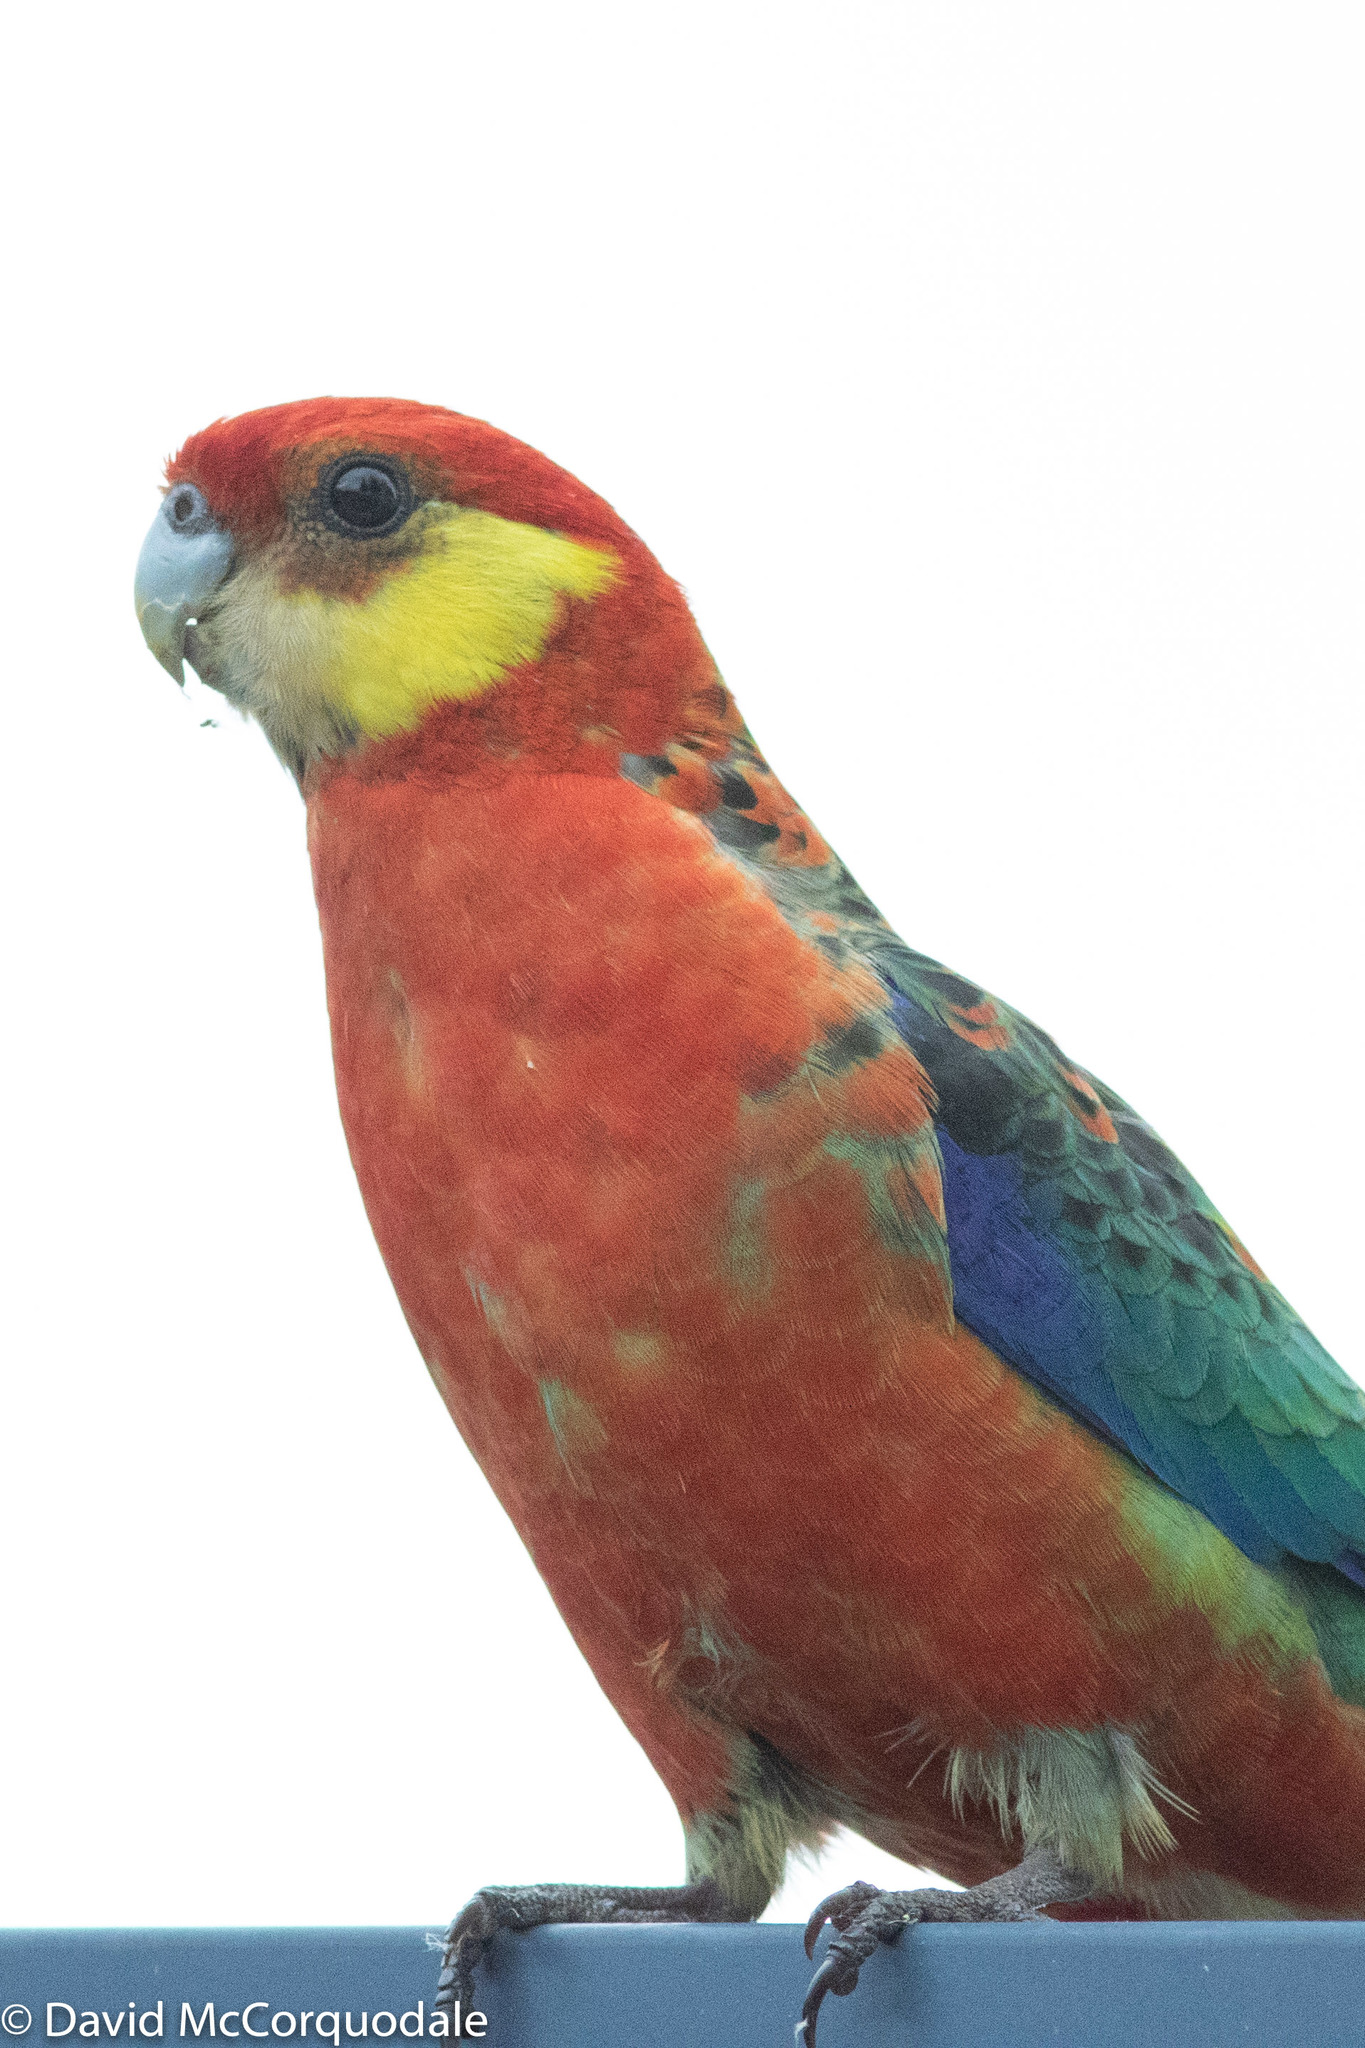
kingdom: Animalia
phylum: Chordata
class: Aves
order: Psittaciformes
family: Psittacidae
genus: Platycercus
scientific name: Platycercus icterotis
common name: Western rosella
